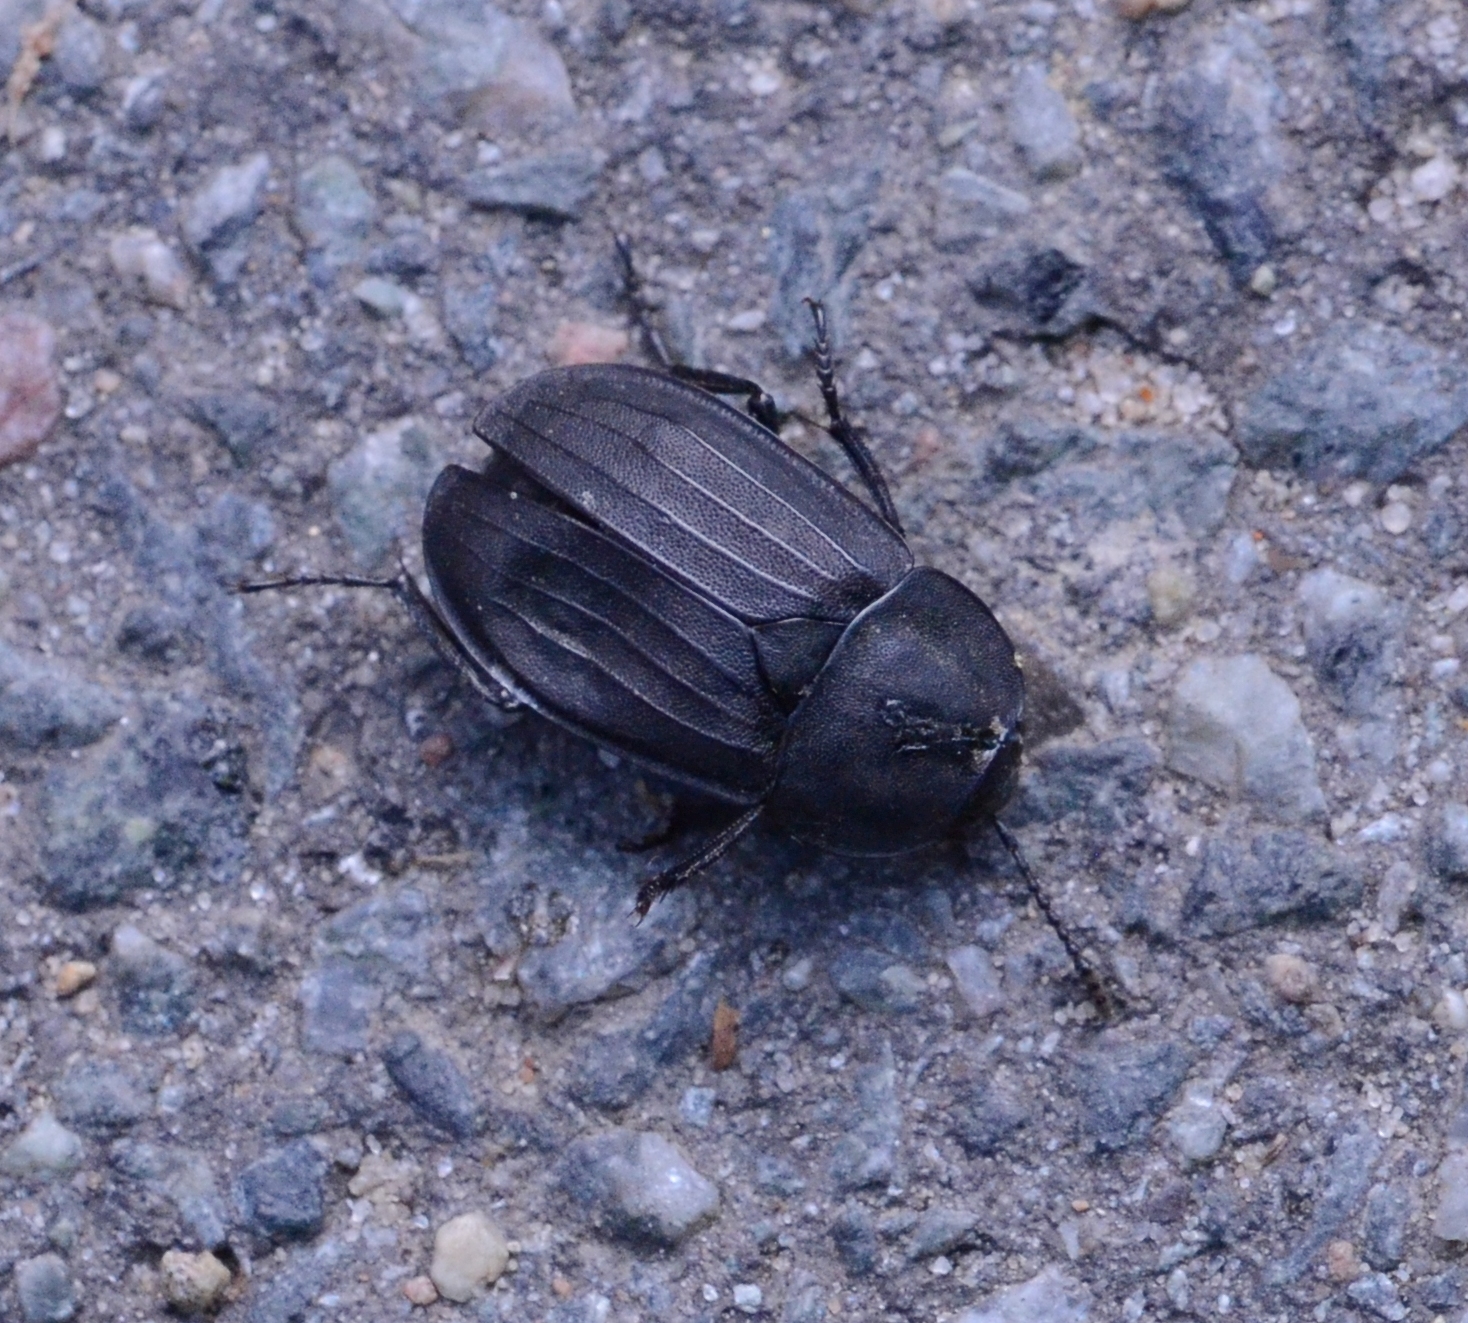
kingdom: Animalia
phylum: Arthropoda
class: Insecta
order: Coleoptera
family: Staphylinidae
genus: Silpha
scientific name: Silpha tristis
